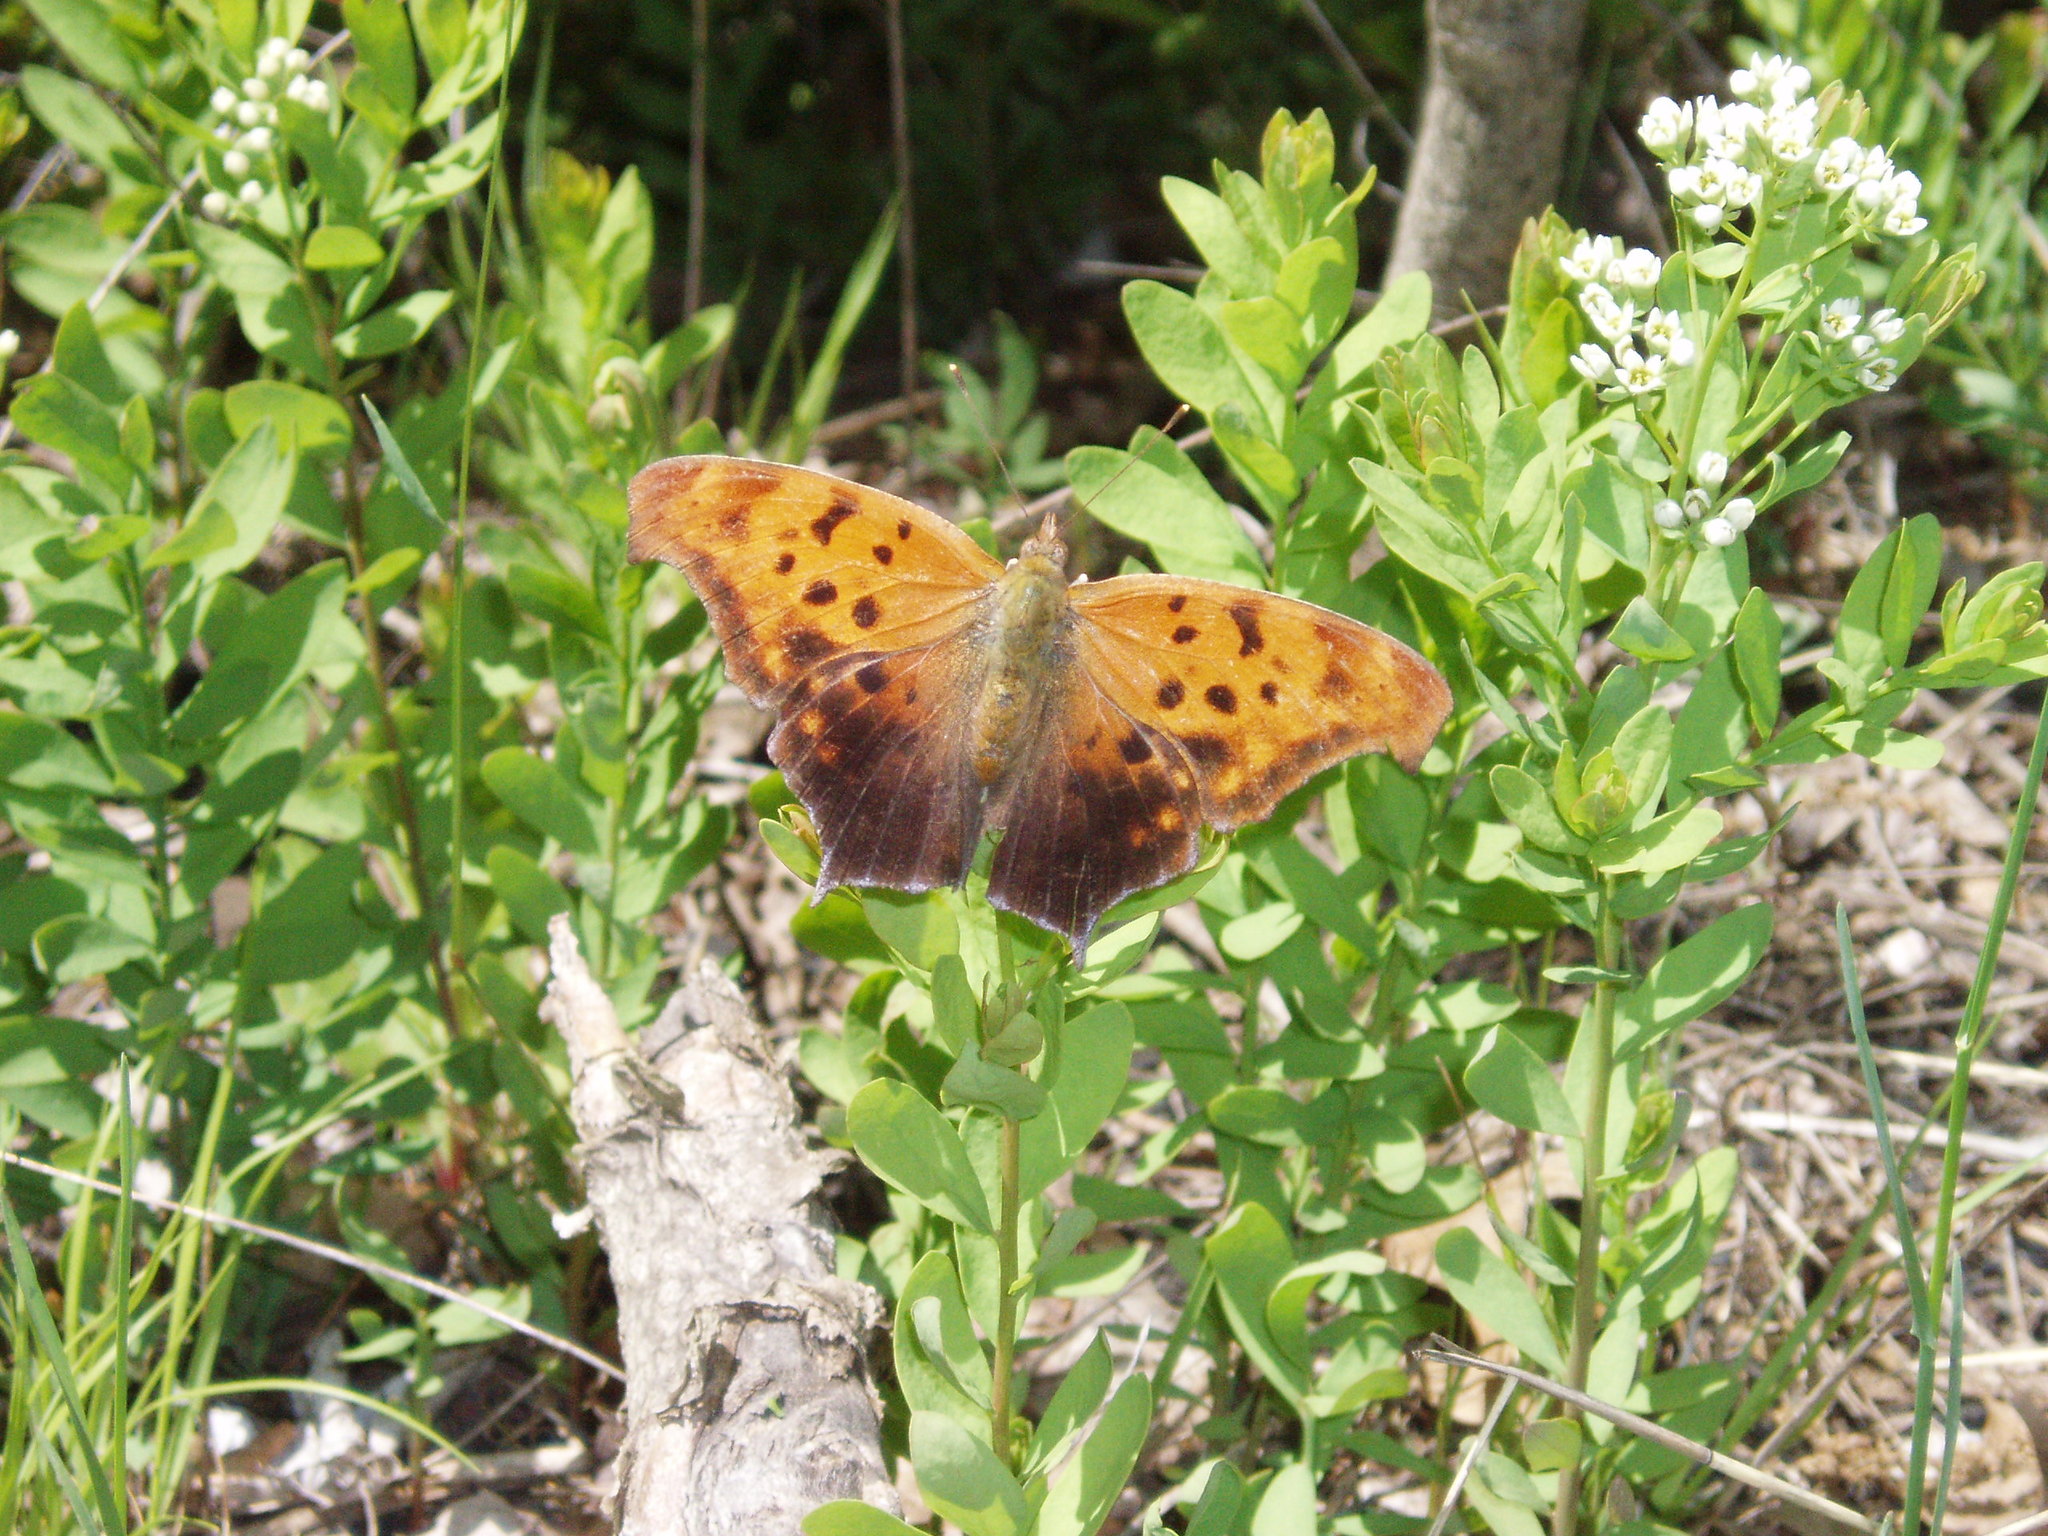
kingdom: Animalia
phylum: Arthropoda
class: Insecta
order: Lepidoptera
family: Nymphalidae
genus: Polygonia
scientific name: Polygonia interrogationis
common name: Question mark
